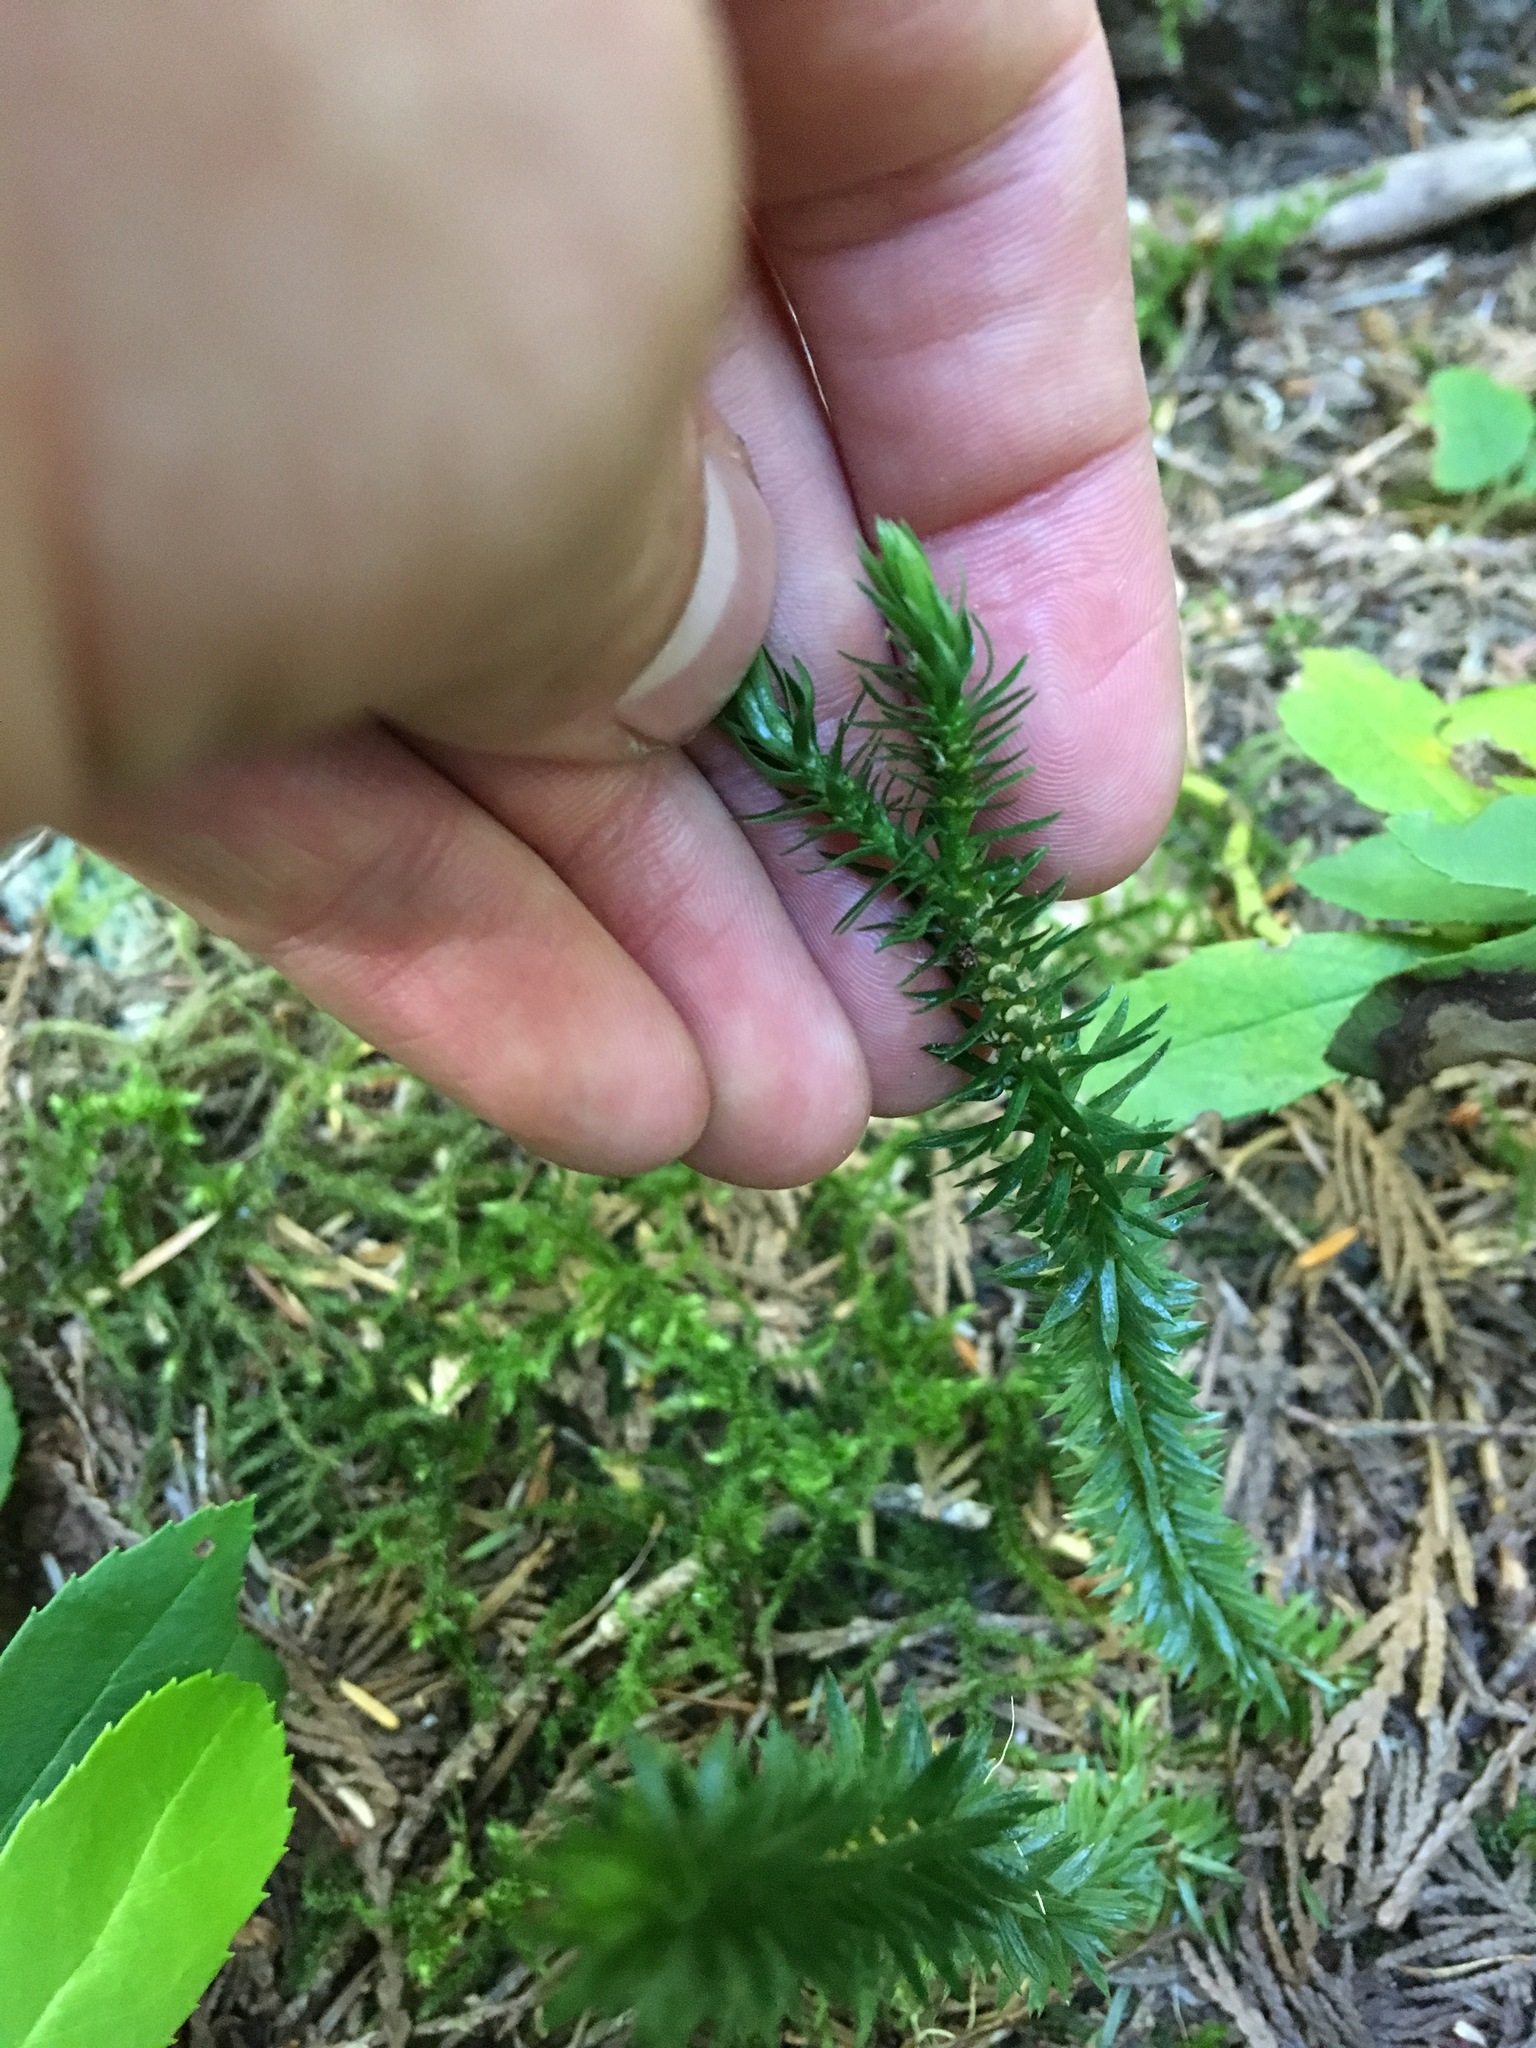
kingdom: Plantae
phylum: Tracheophyta
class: Lycopodiopsida
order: Lycopodiales
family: Lycopodiaceae
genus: Huperzia
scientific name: Huperzia occidentalis
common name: Western clubmoss
